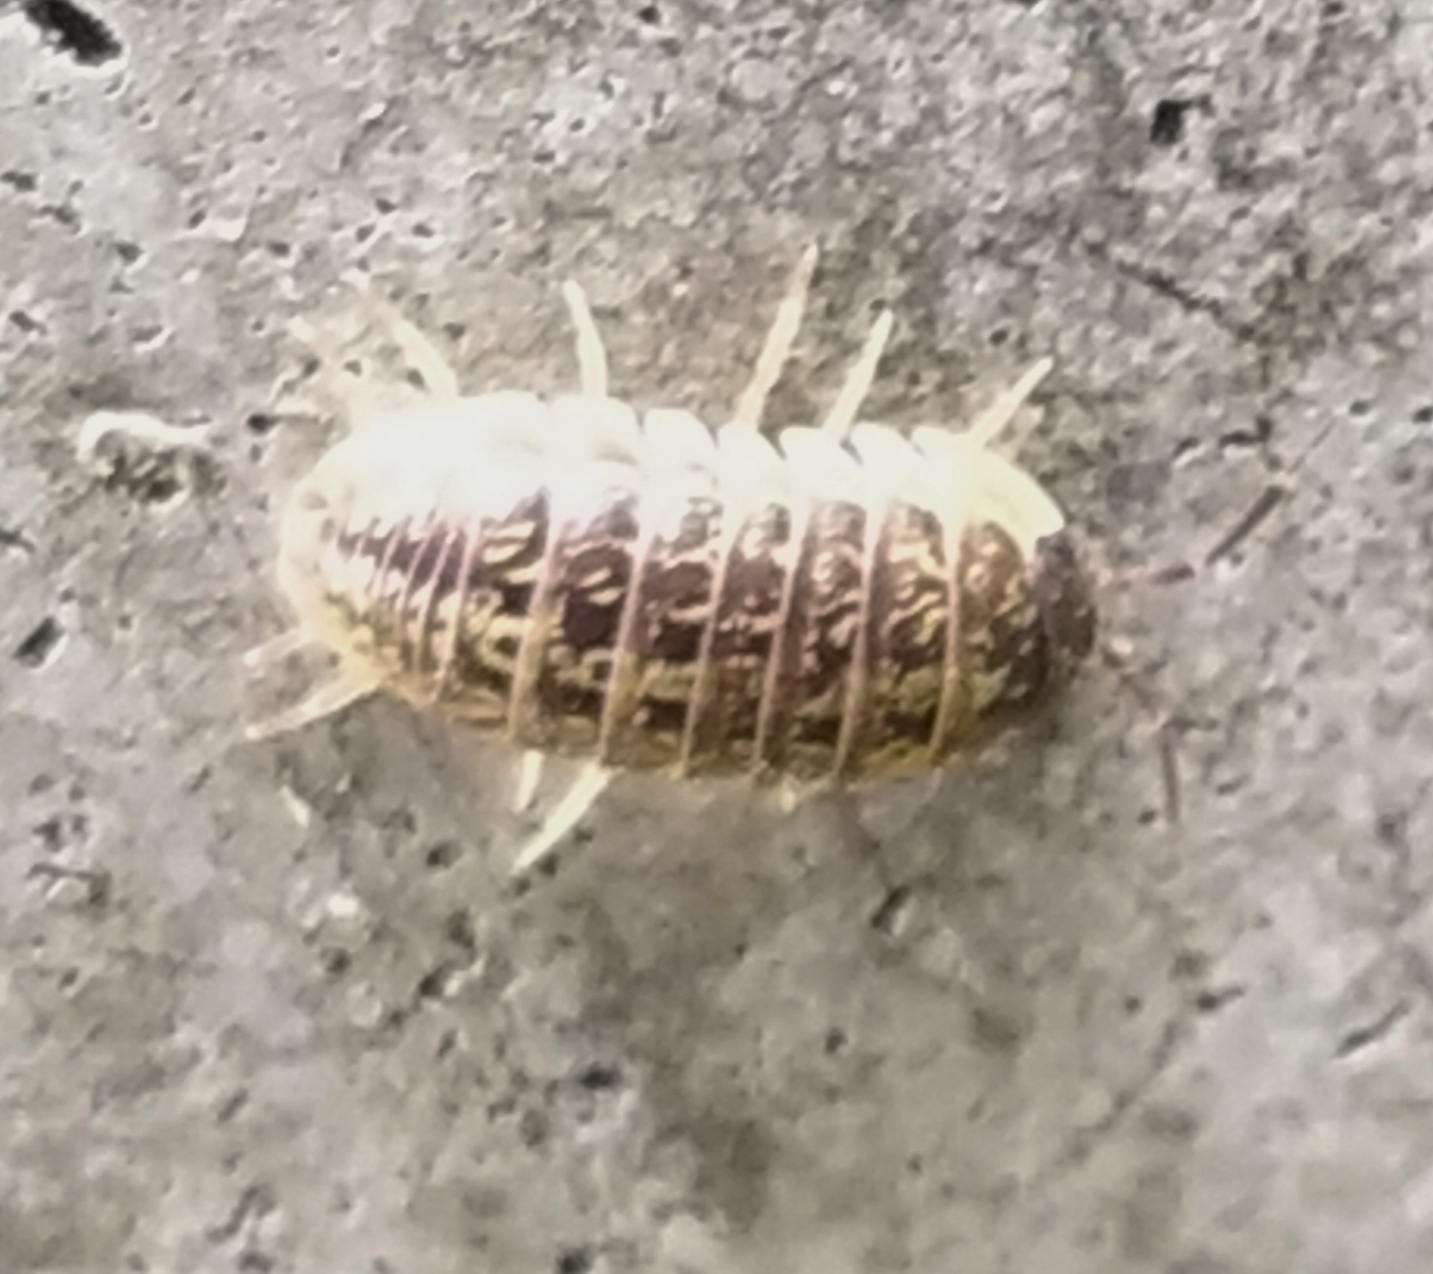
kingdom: Animalia
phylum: Arthropoda
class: Malacostraca
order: Isopoda
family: Armadillidiidae
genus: Armadillidium
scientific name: Armadillidium versicolor
